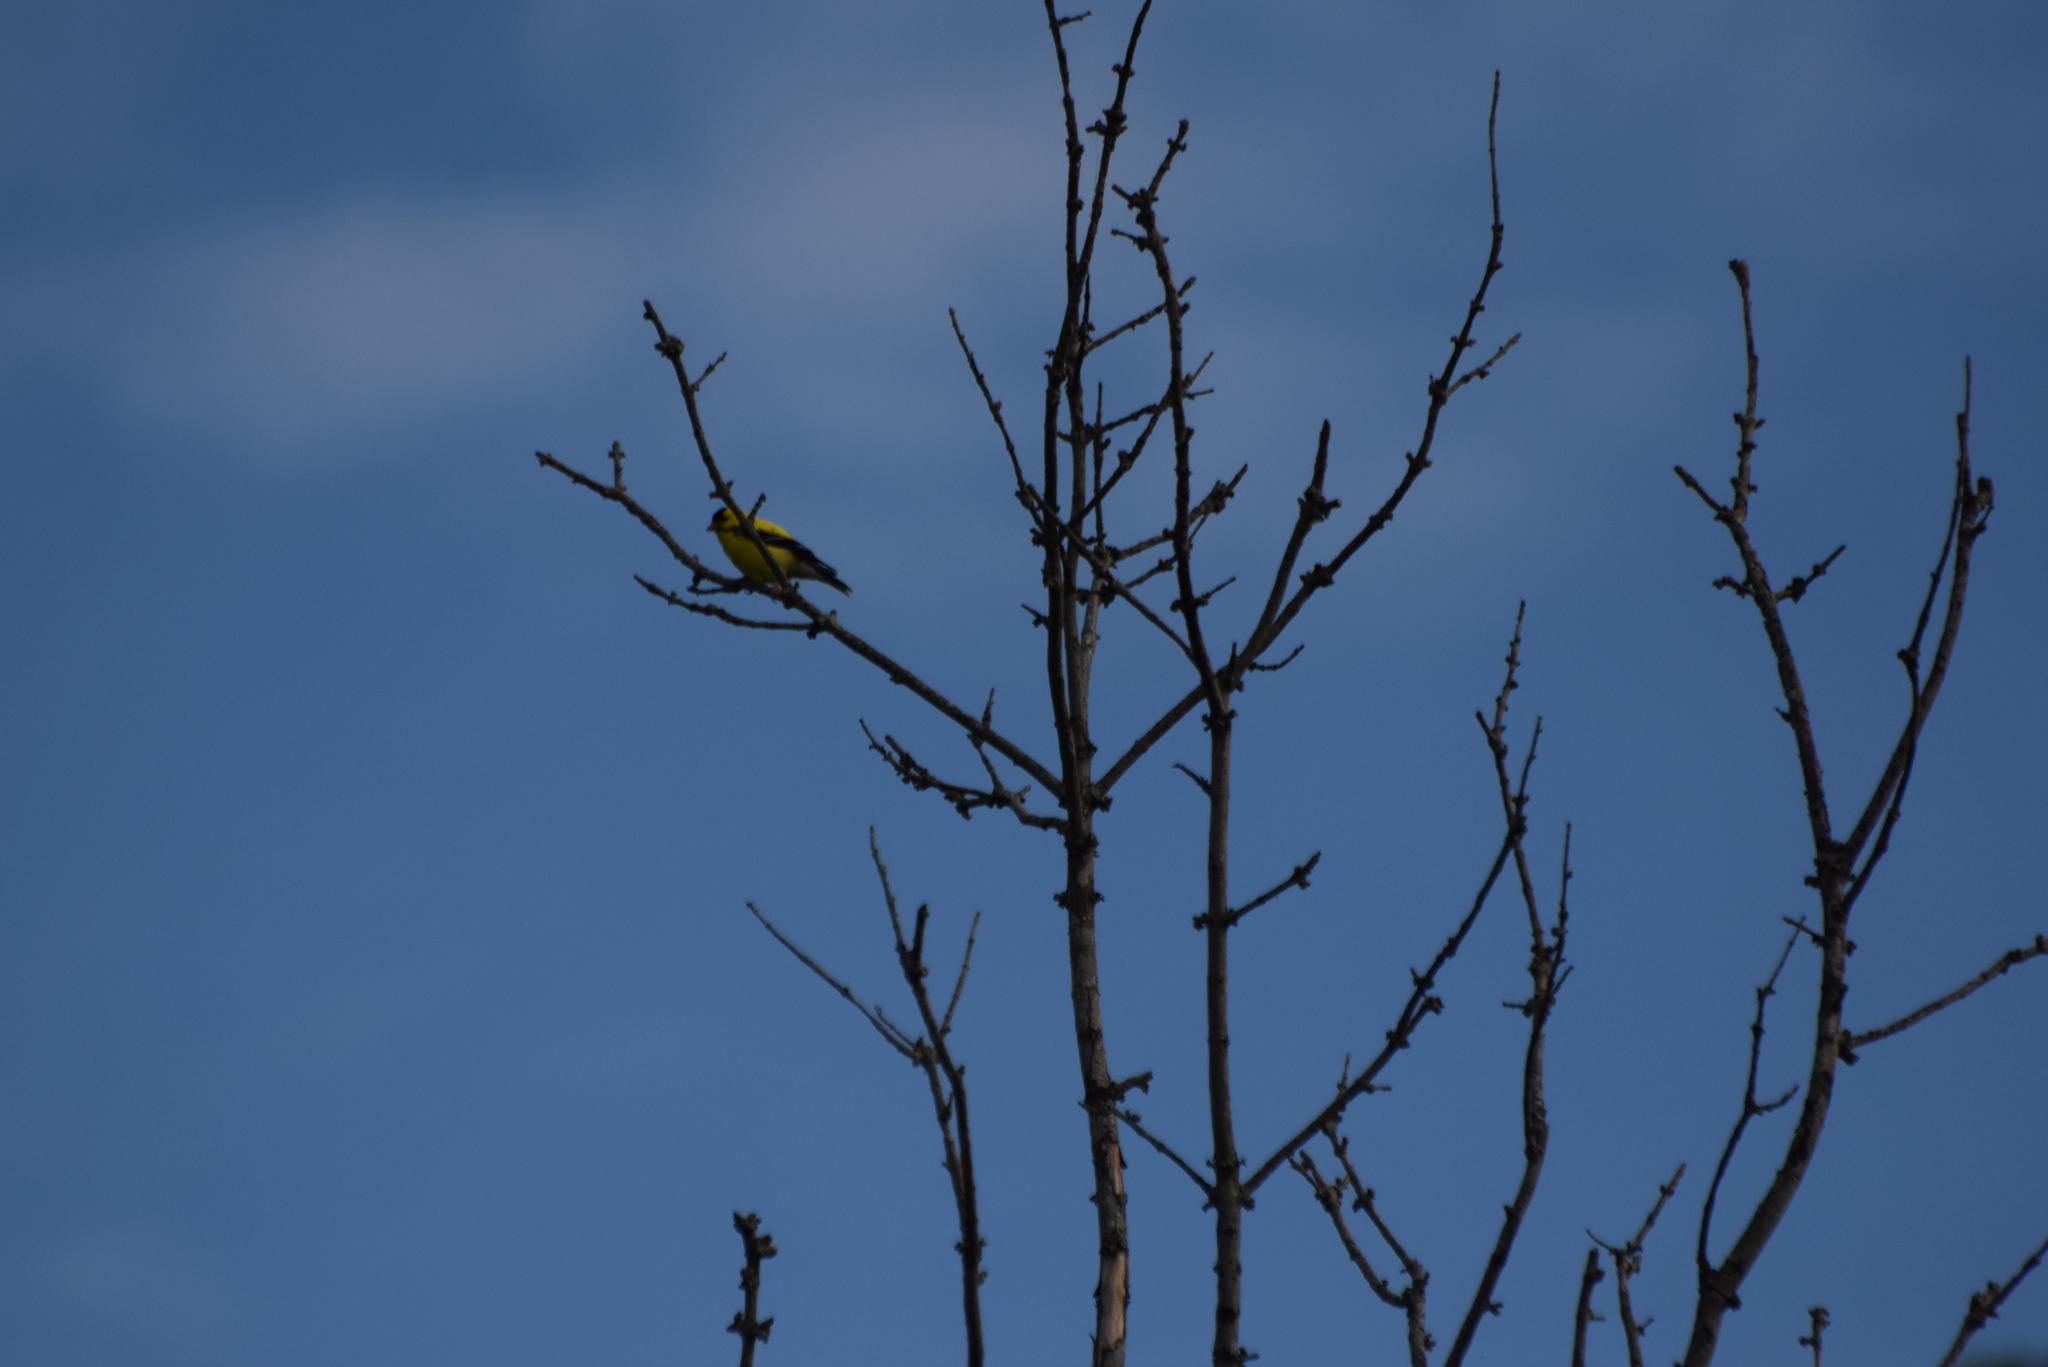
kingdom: Animalia
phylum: Chordata
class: Aves
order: Passeriformes
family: Fringillidae
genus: Spinus
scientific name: Spinus tristis
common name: American goldfinch
